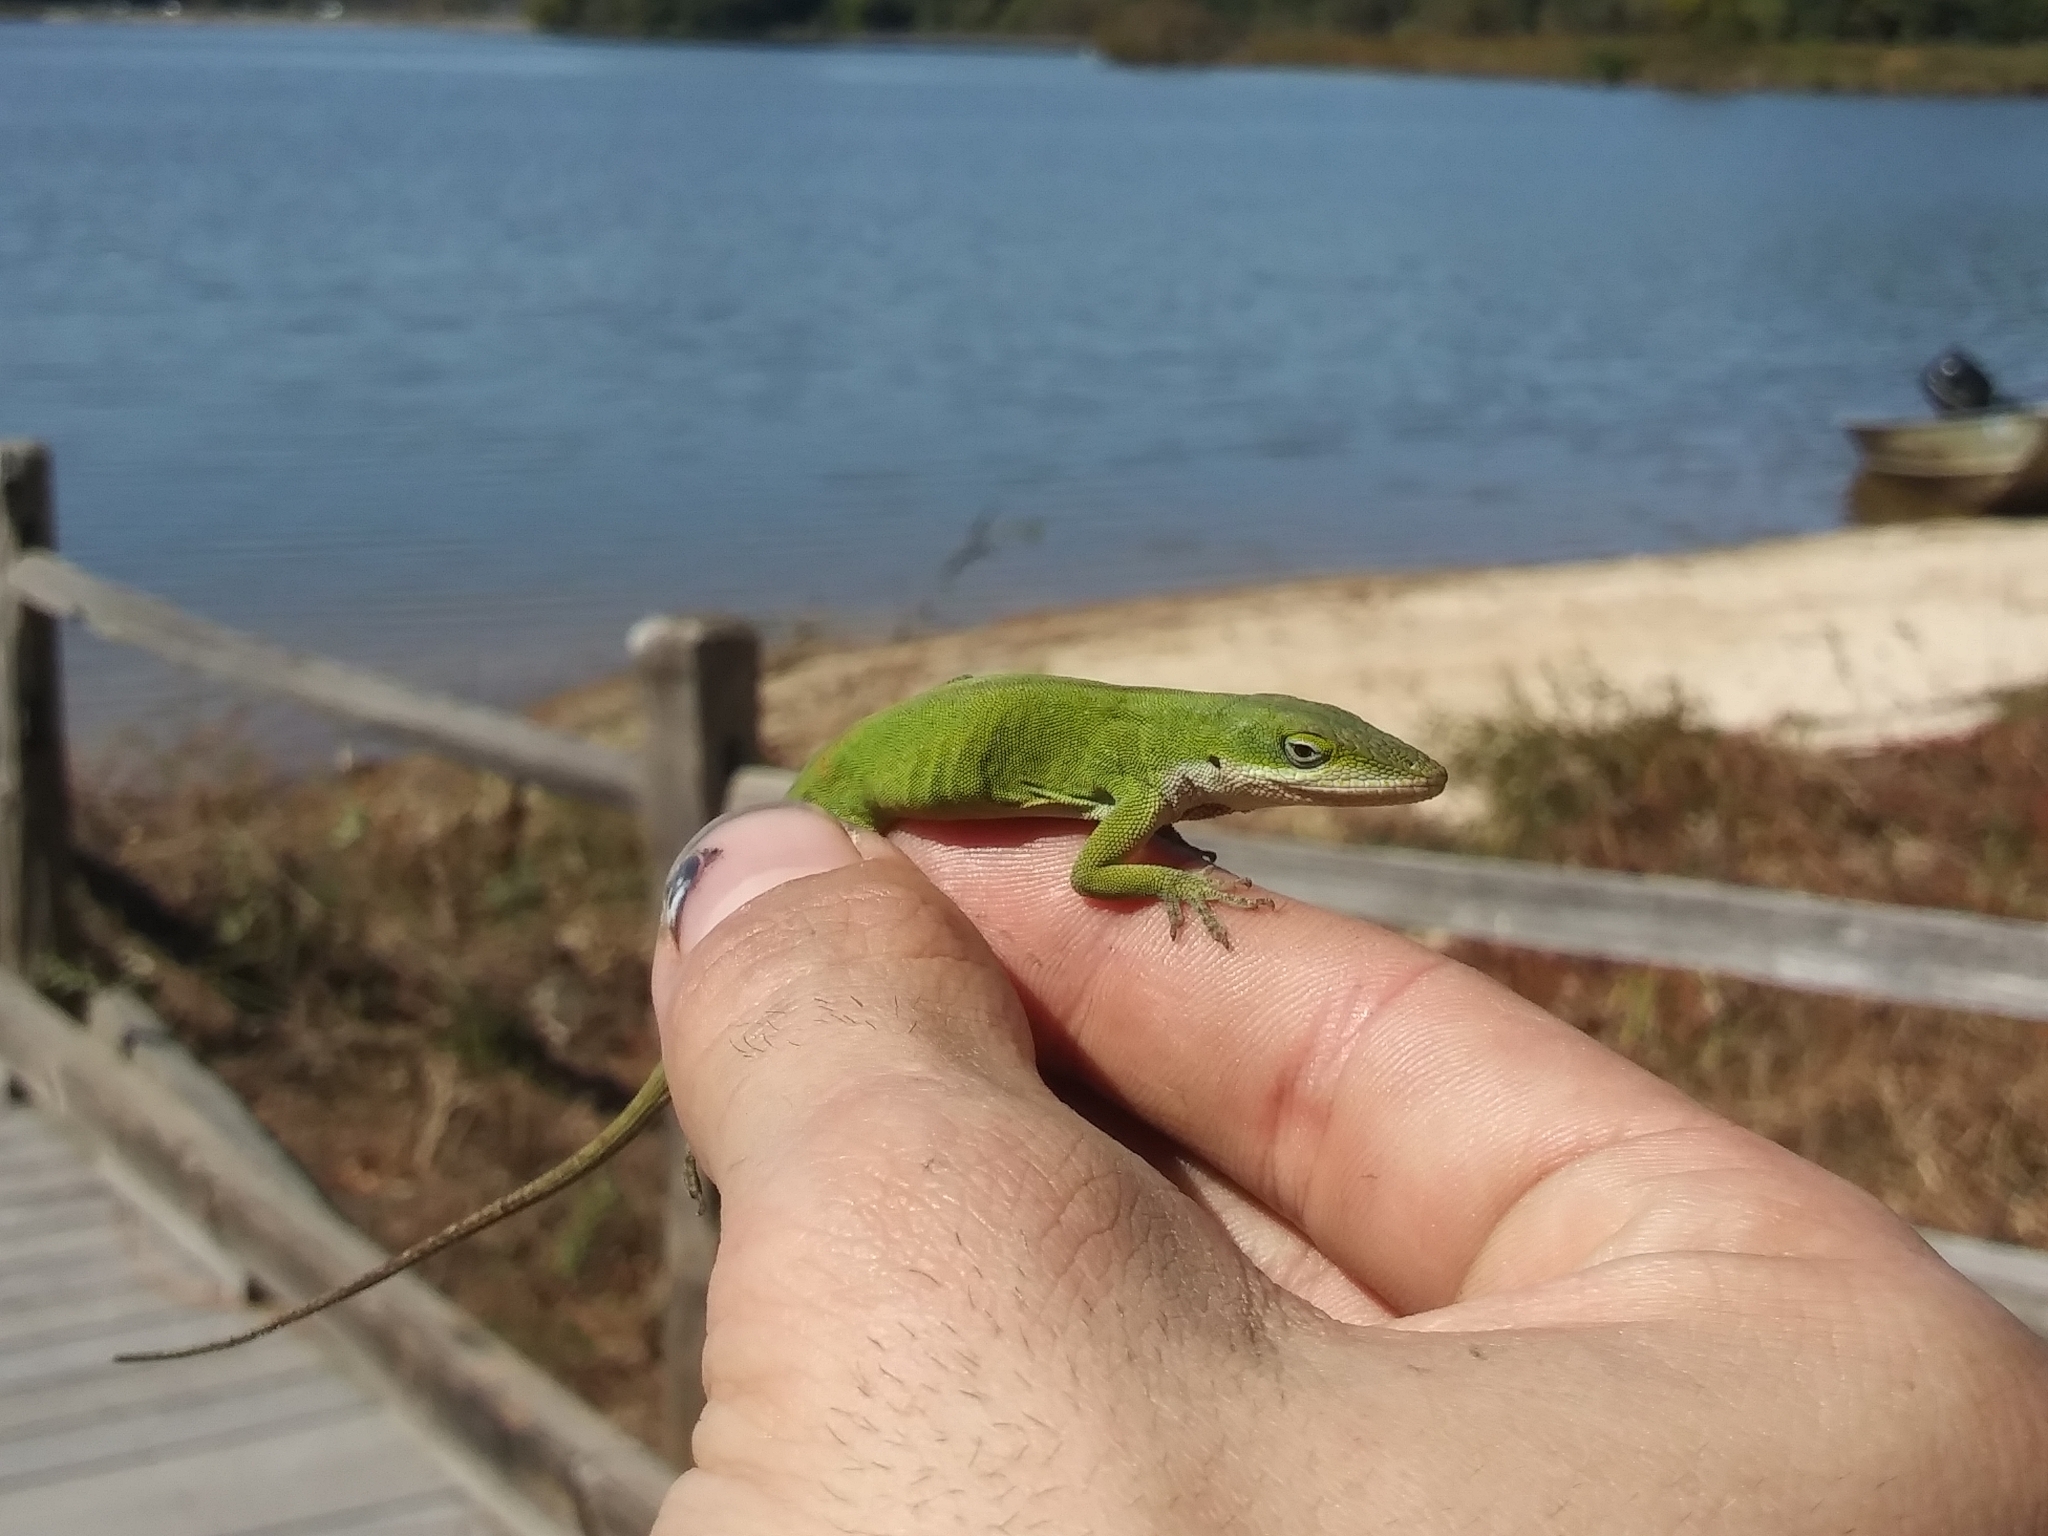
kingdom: Animalia
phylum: Chordata
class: Squamata
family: Dactyloidae
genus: Anolis
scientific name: Anolis carolinensis
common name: Green anole
